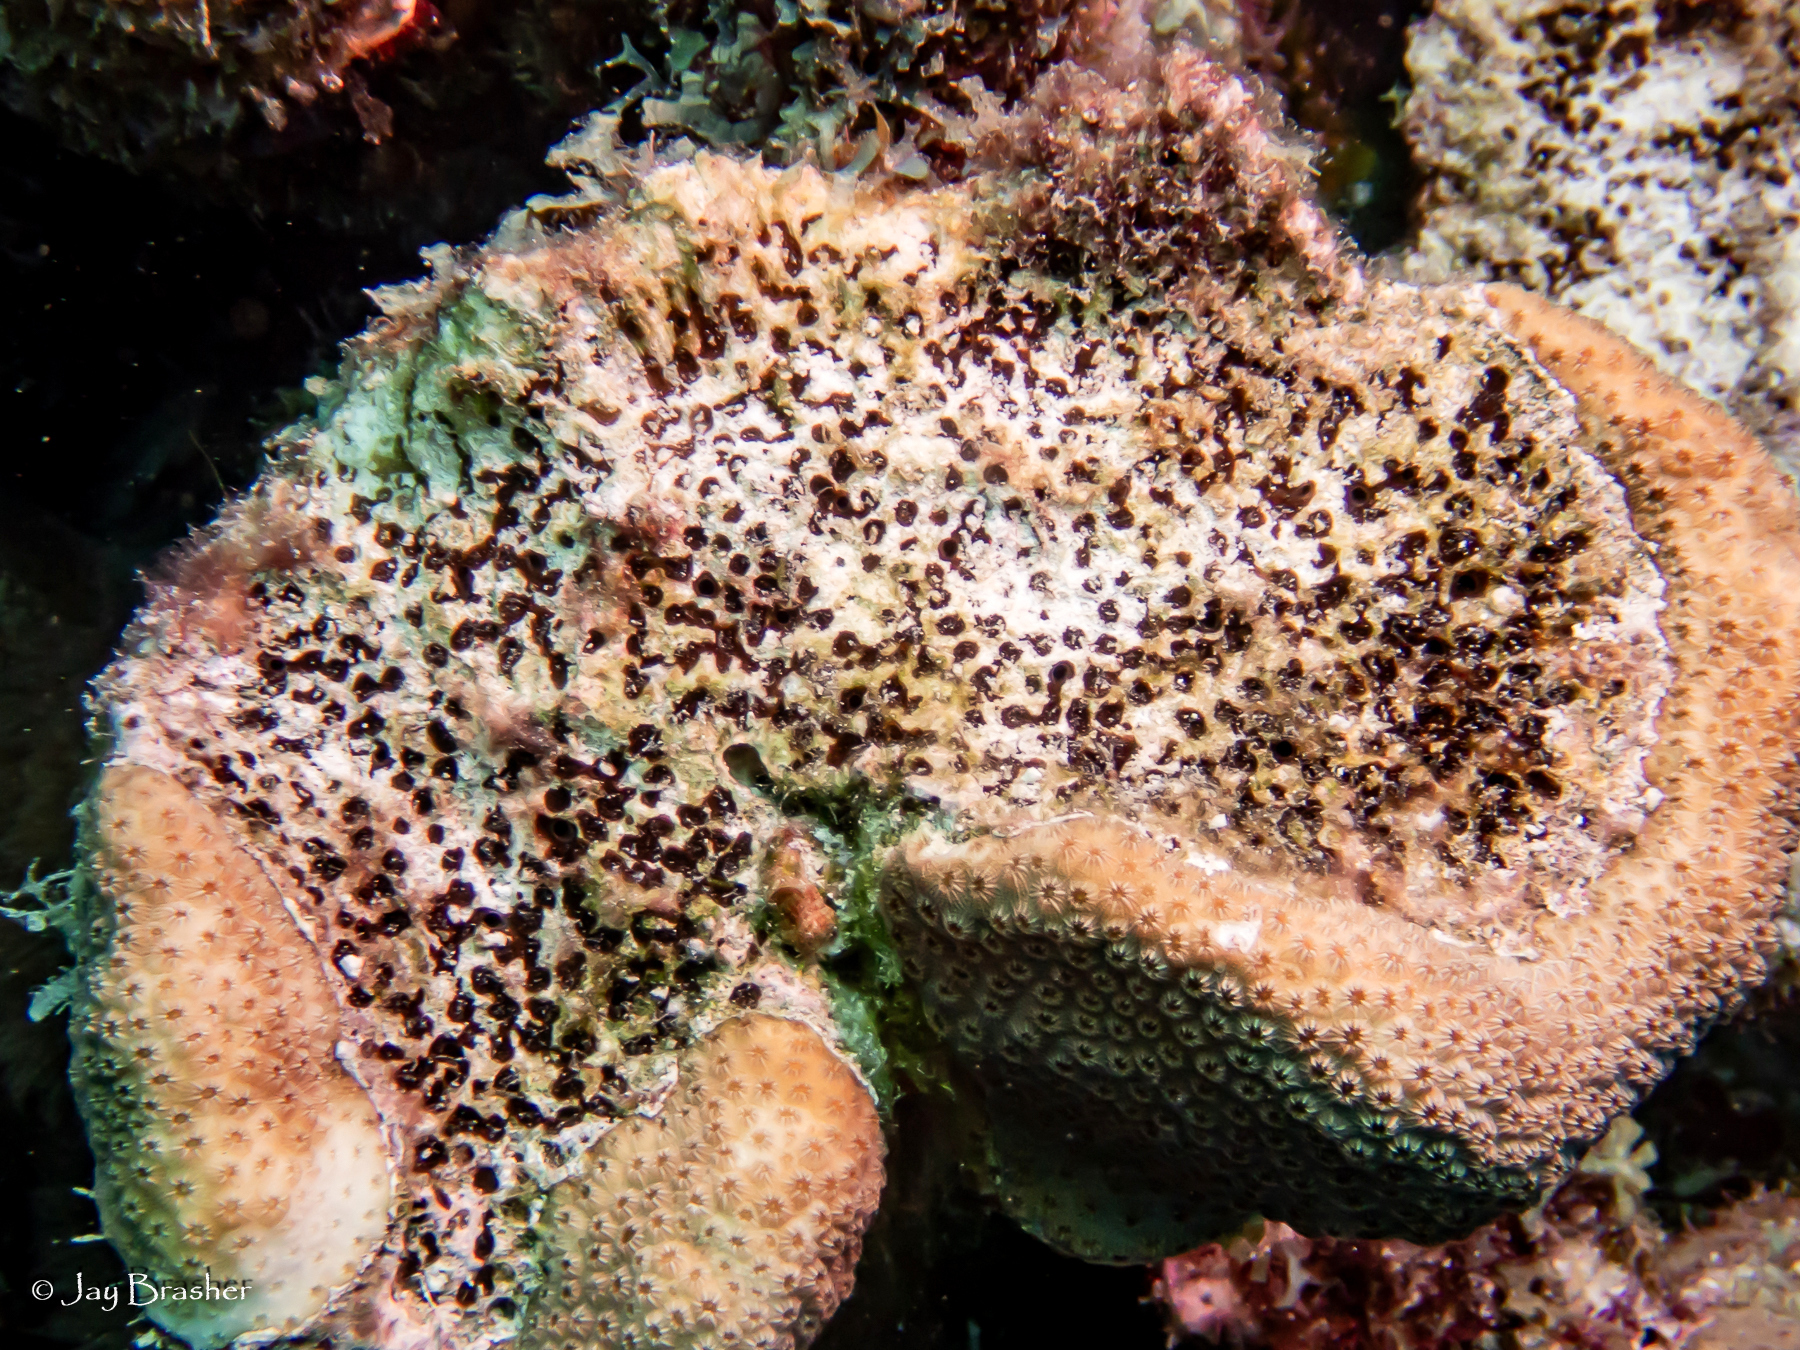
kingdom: Animalia
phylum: Porifera
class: Demospongiae
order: Clionaida
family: Clionaidae
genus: Cliona
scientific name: Cliona aprica
